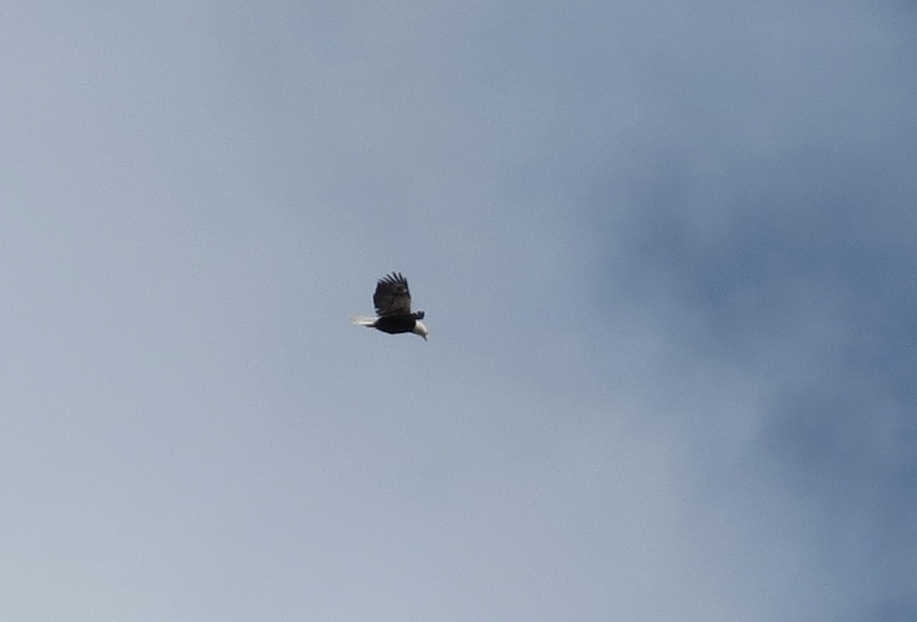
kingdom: Animalia
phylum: Chordata
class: Aves
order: Accipitriformes
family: Accipitridae
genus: Haliaeetus
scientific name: Haliaeetus leucocephalus
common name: Bald eagle
